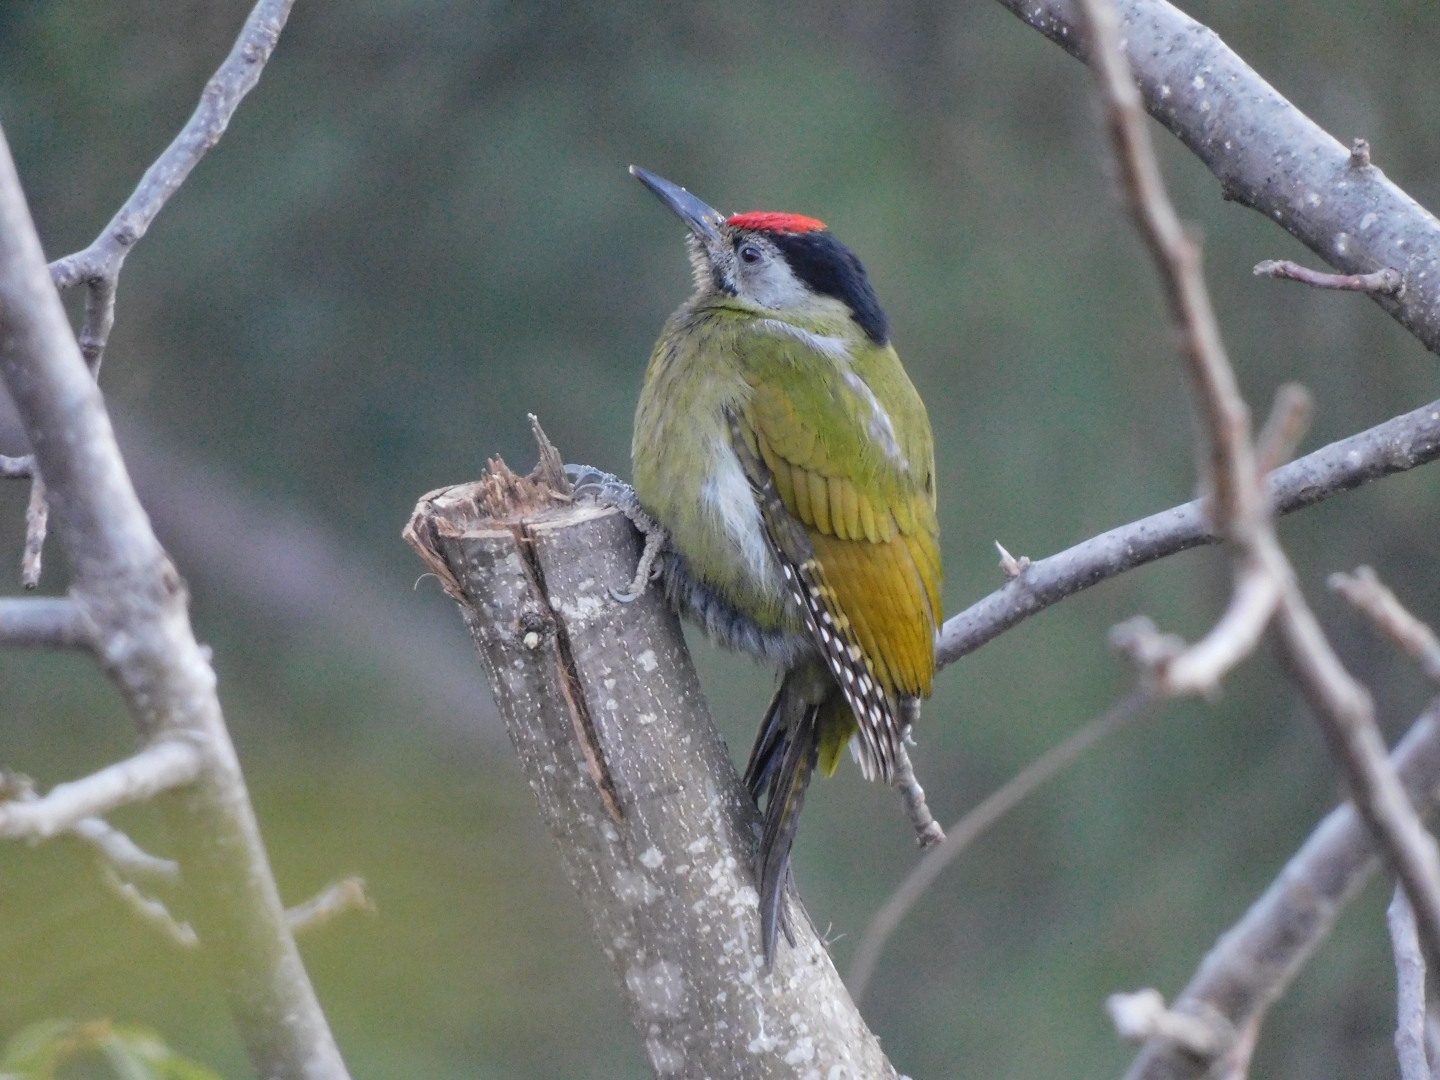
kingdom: Animalia
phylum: Chordata
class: Aves
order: Piciformes
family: Picidae
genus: Picus
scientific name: Picus canus
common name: Grey-headed woodpecker
